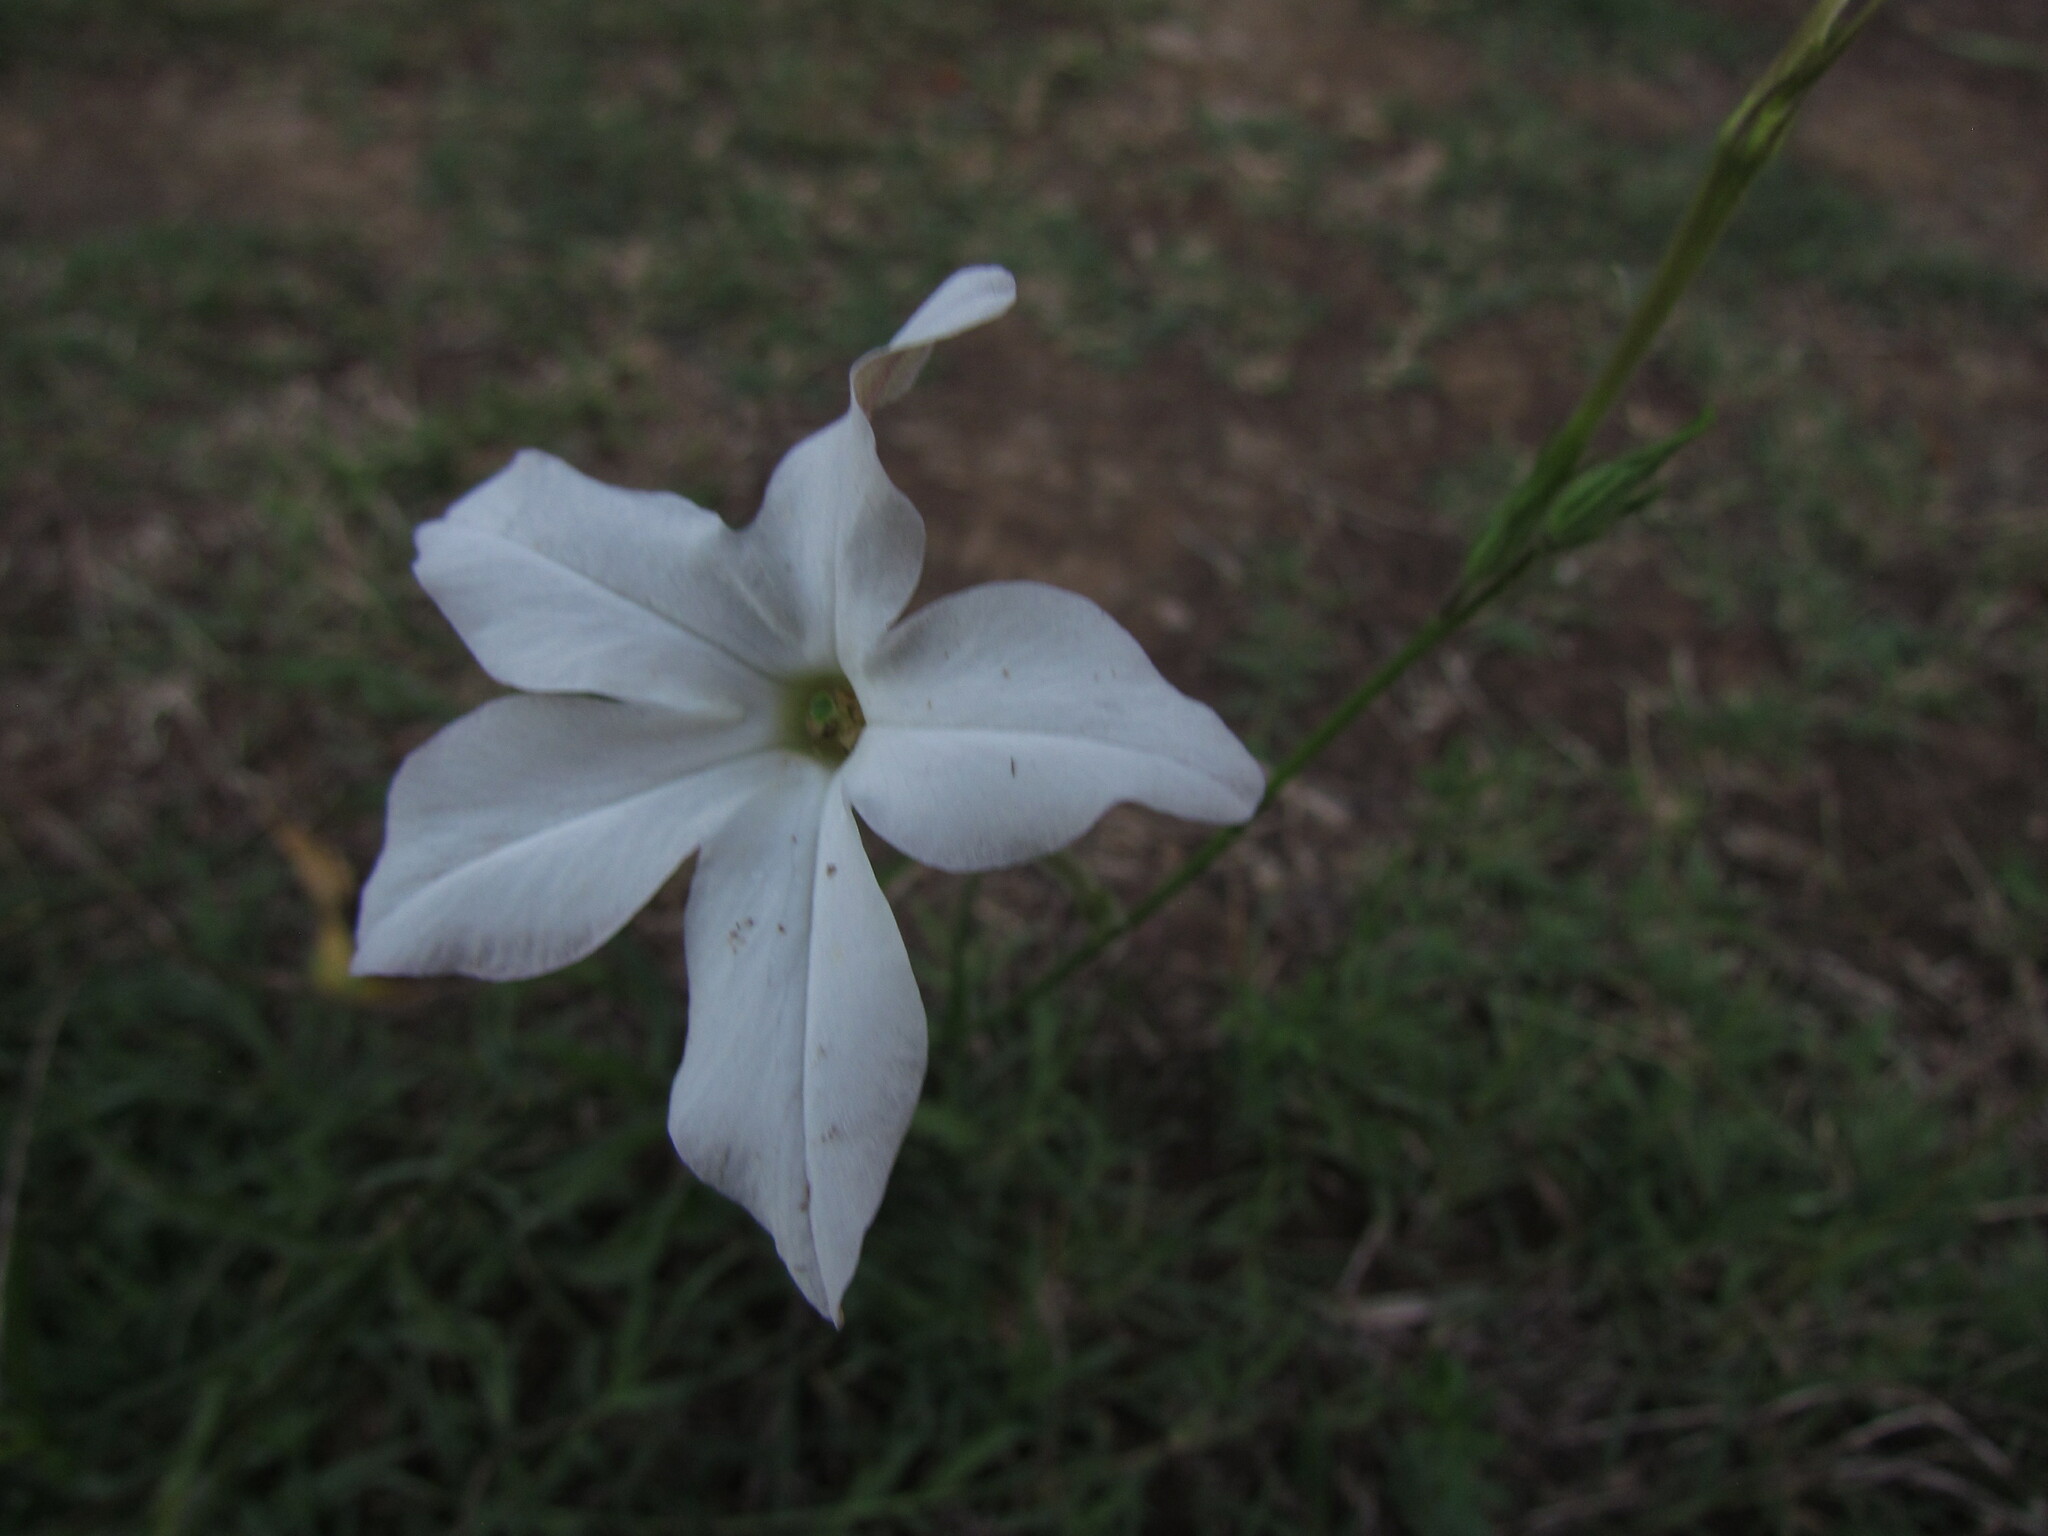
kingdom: Plantae
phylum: Tracheophyta
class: Magnoliopsida
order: Solanales
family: Solanaceae
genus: Nicotiana
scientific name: Nicotiana longiflora
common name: Long-flowered tobacco
